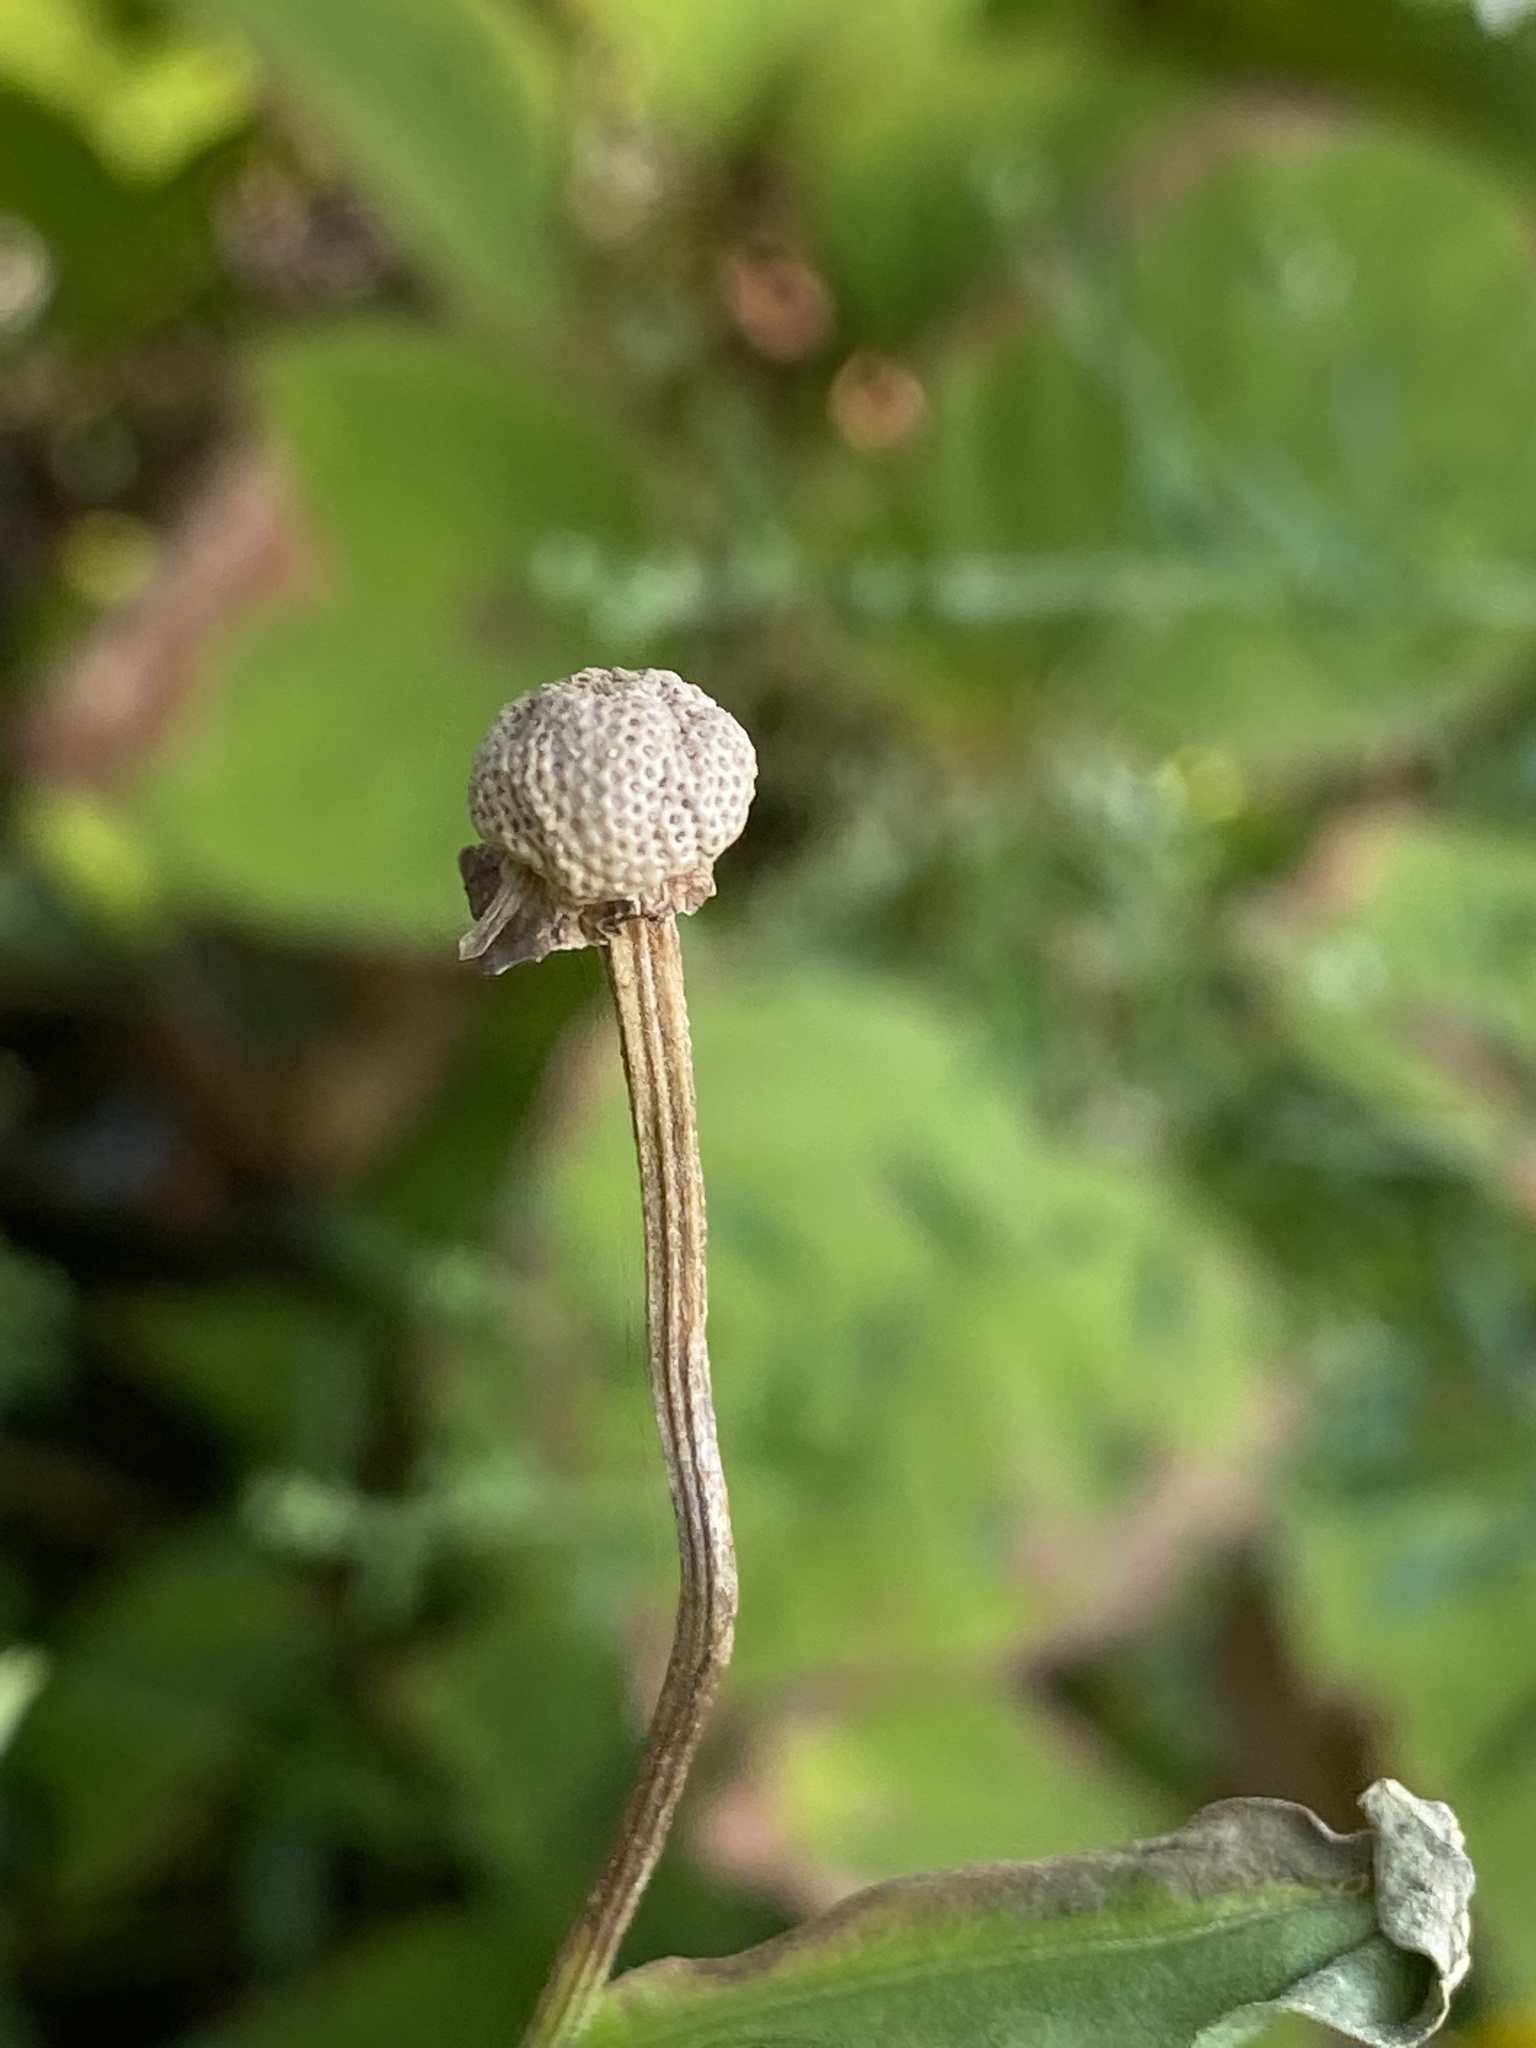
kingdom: Plantae
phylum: Tracheophyta
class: Magnoliopsida
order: Asterales
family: Asteraceae
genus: Helenium
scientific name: Helenium autumnale
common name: Sneezeweed
